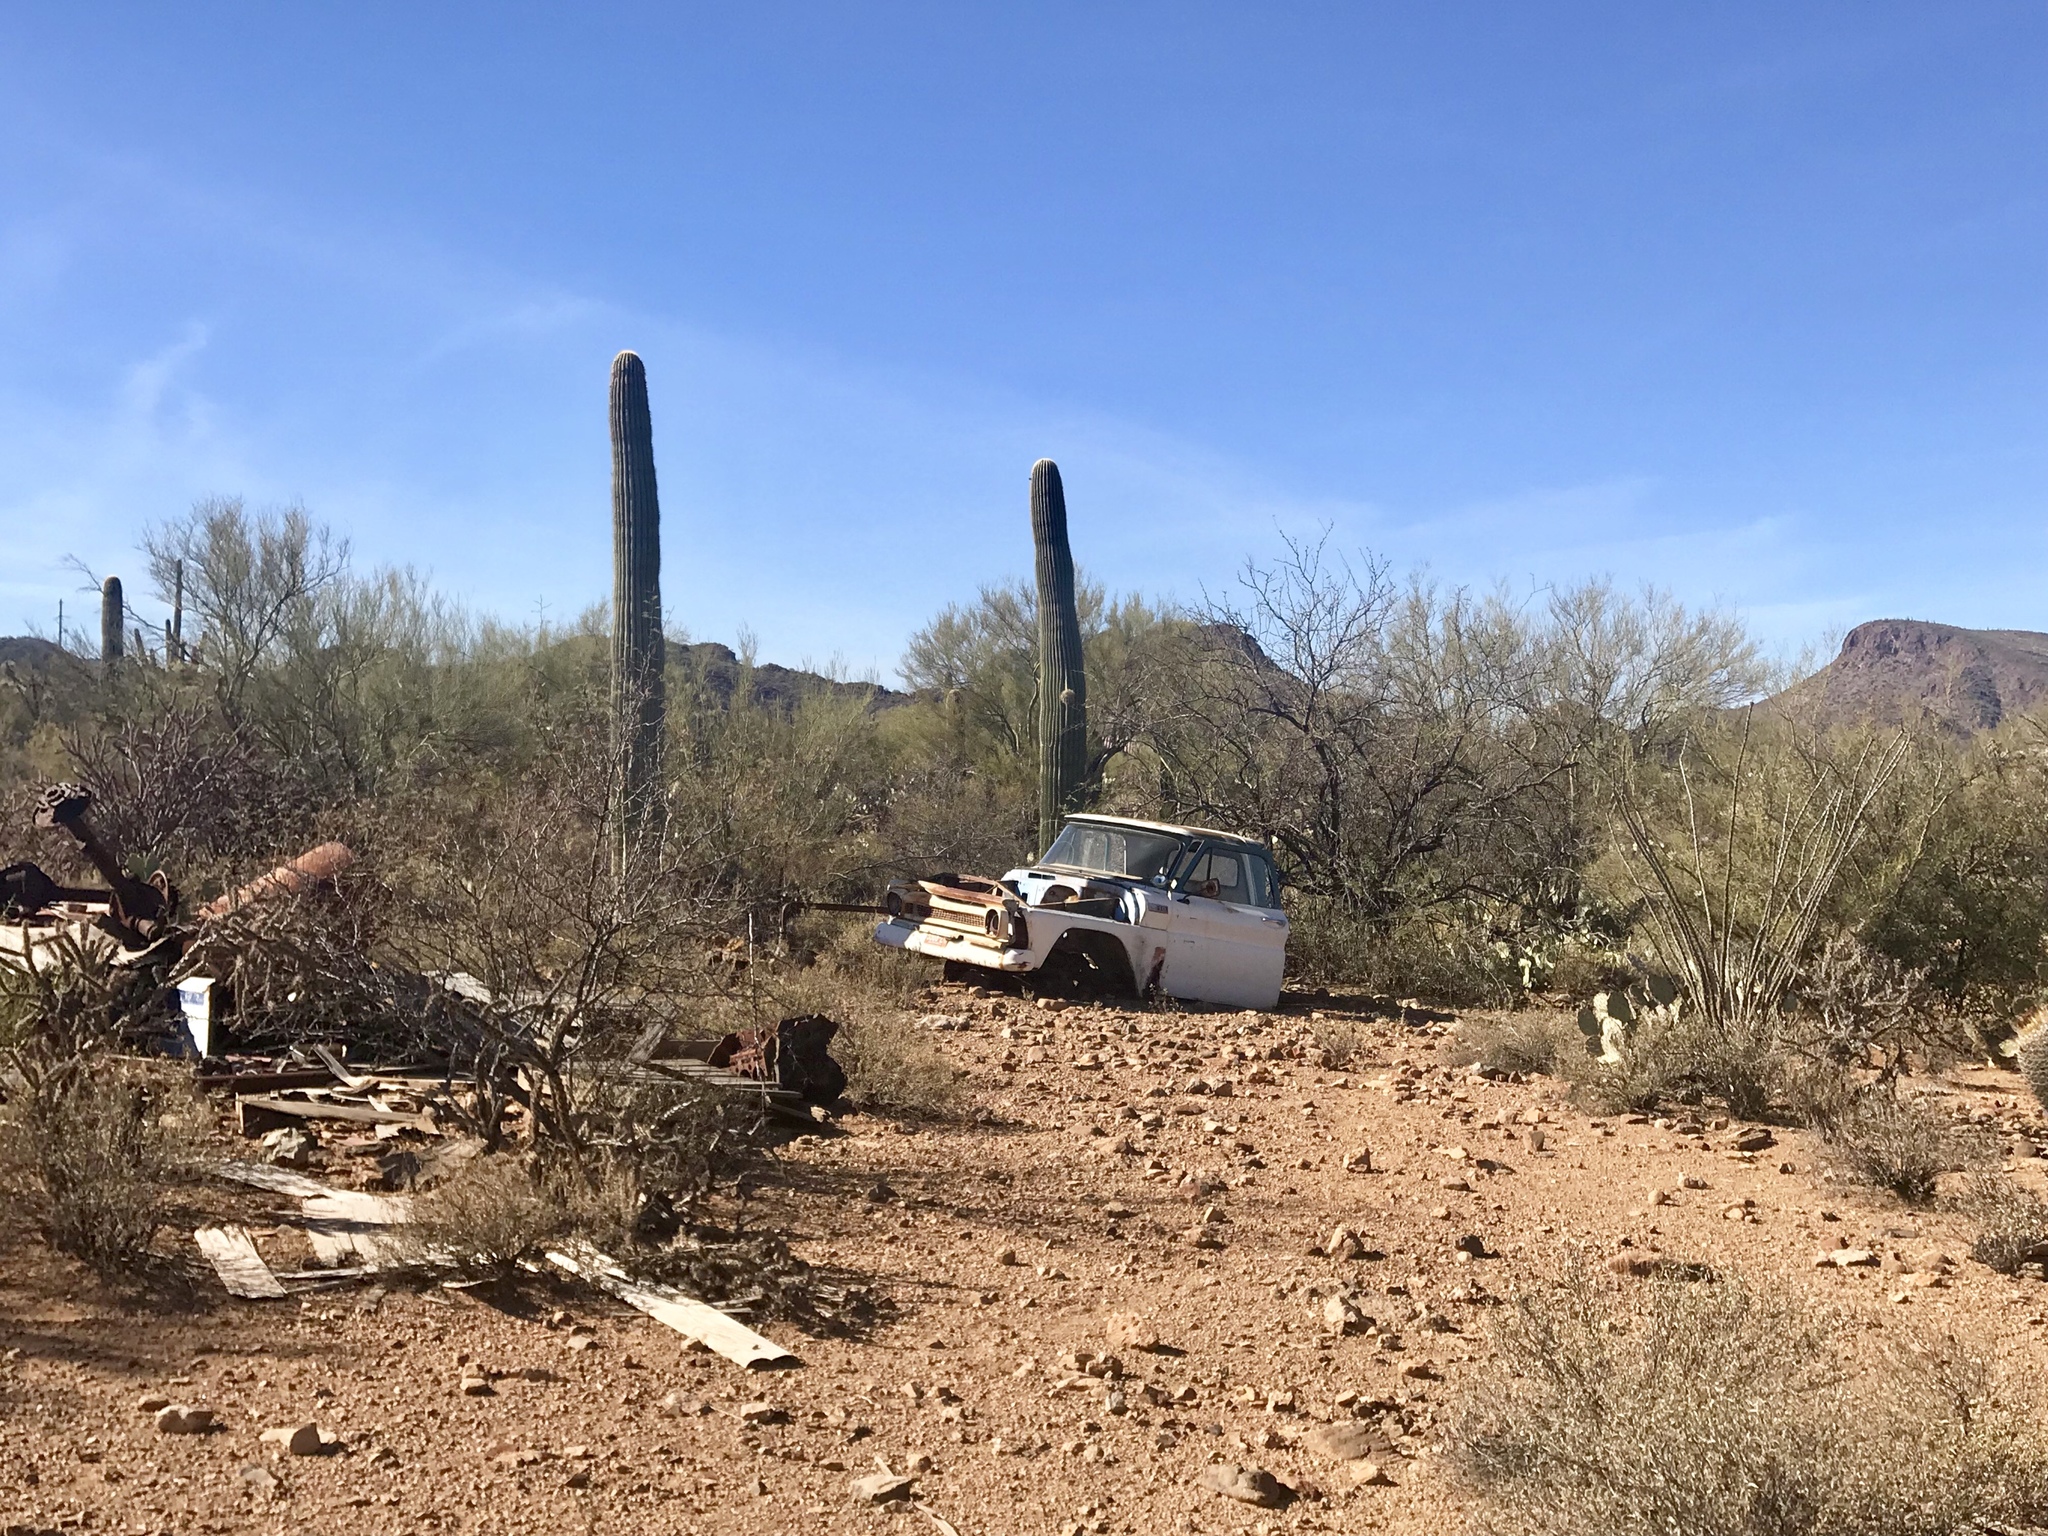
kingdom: Plantae
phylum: Tracheophyta
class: Magnoliopsida
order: Caryophyllales
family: Cactaceae
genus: Carnegiea
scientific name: Carnegiea gigantea
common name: Saguaro
